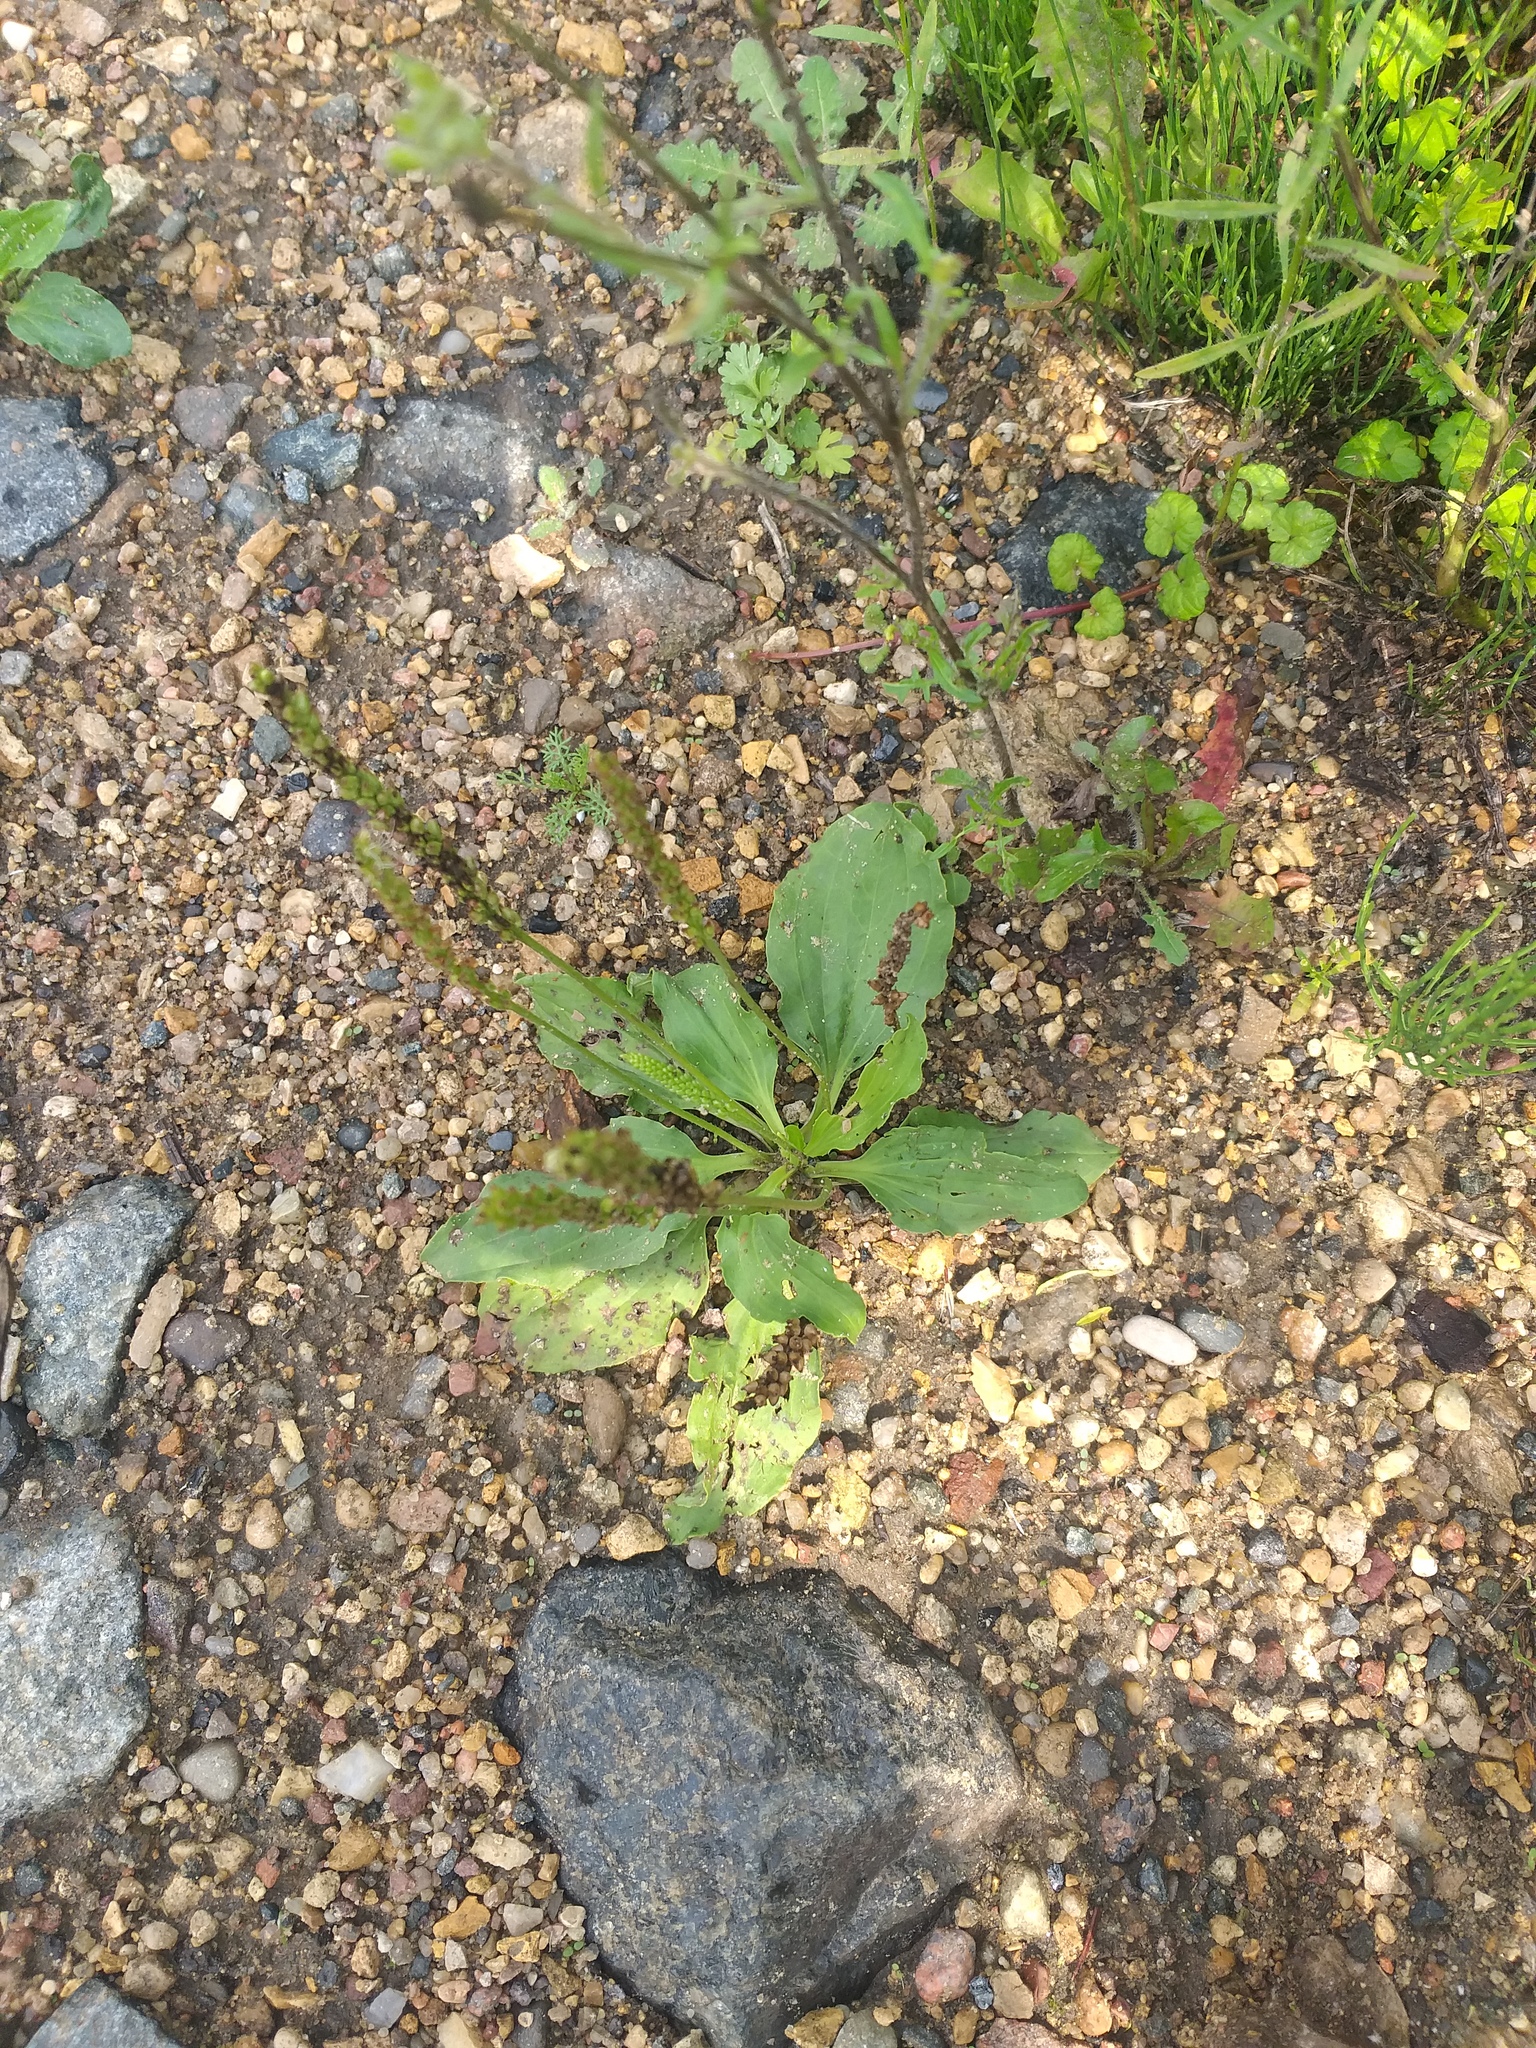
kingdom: Plantae
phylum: Tracheophyta
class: Magnoliopsida
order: Lamiales
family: Plantaginaceae
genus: Plantago
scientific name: Plantago major
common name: Common plantain
